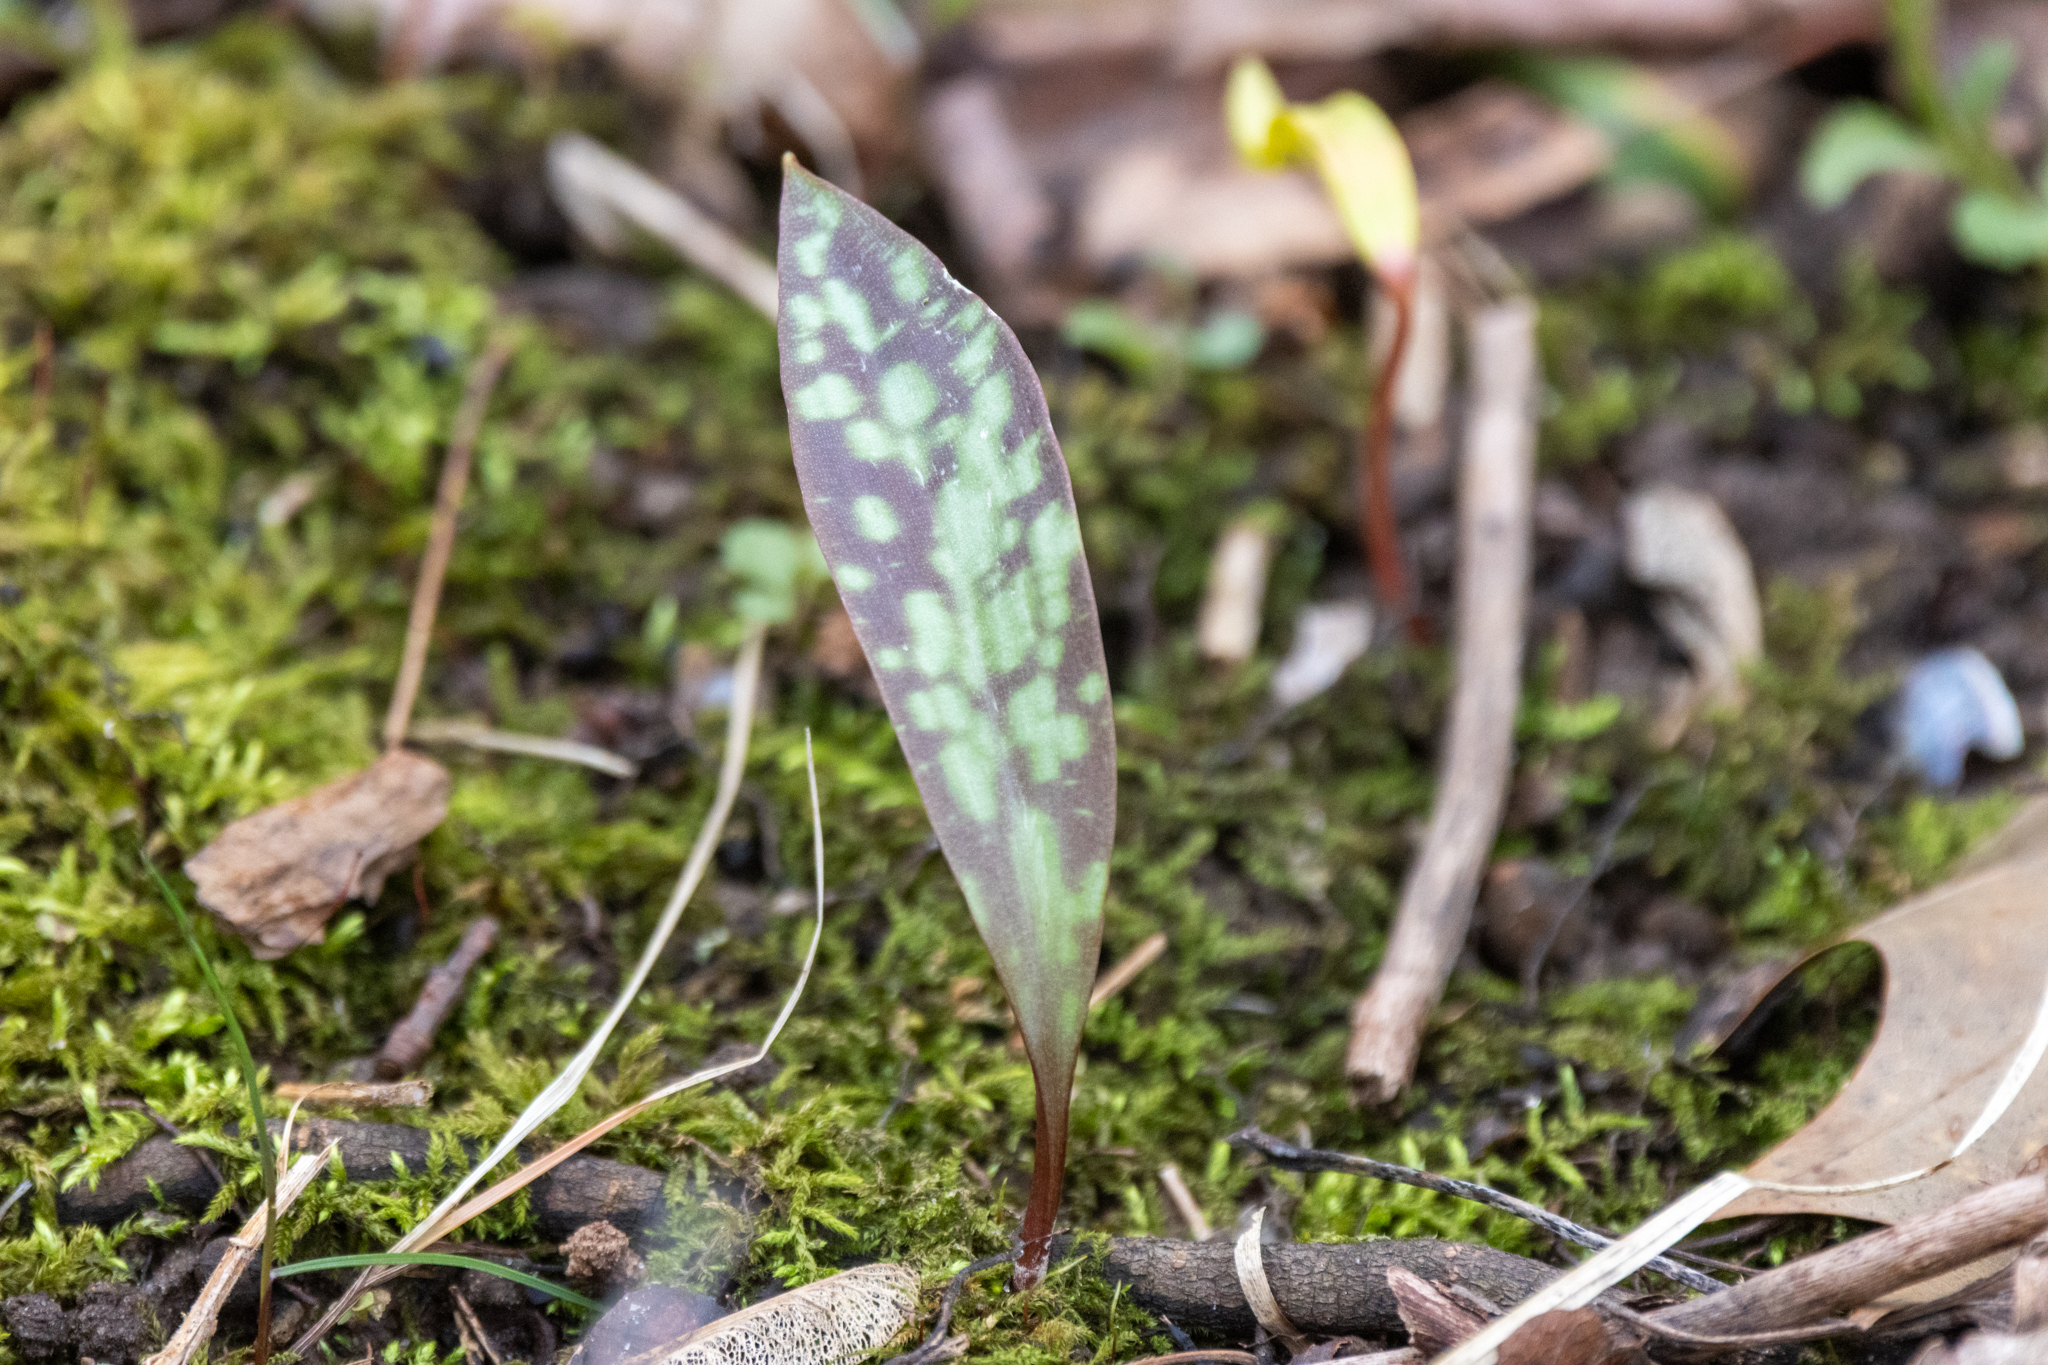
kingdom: Plantae
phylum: Tracheophyta
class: Liliopsida
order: Liliales
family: Liliaceae
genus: Erythronium
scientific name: Erythronium americanum
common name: Yellow adder's-tongue
